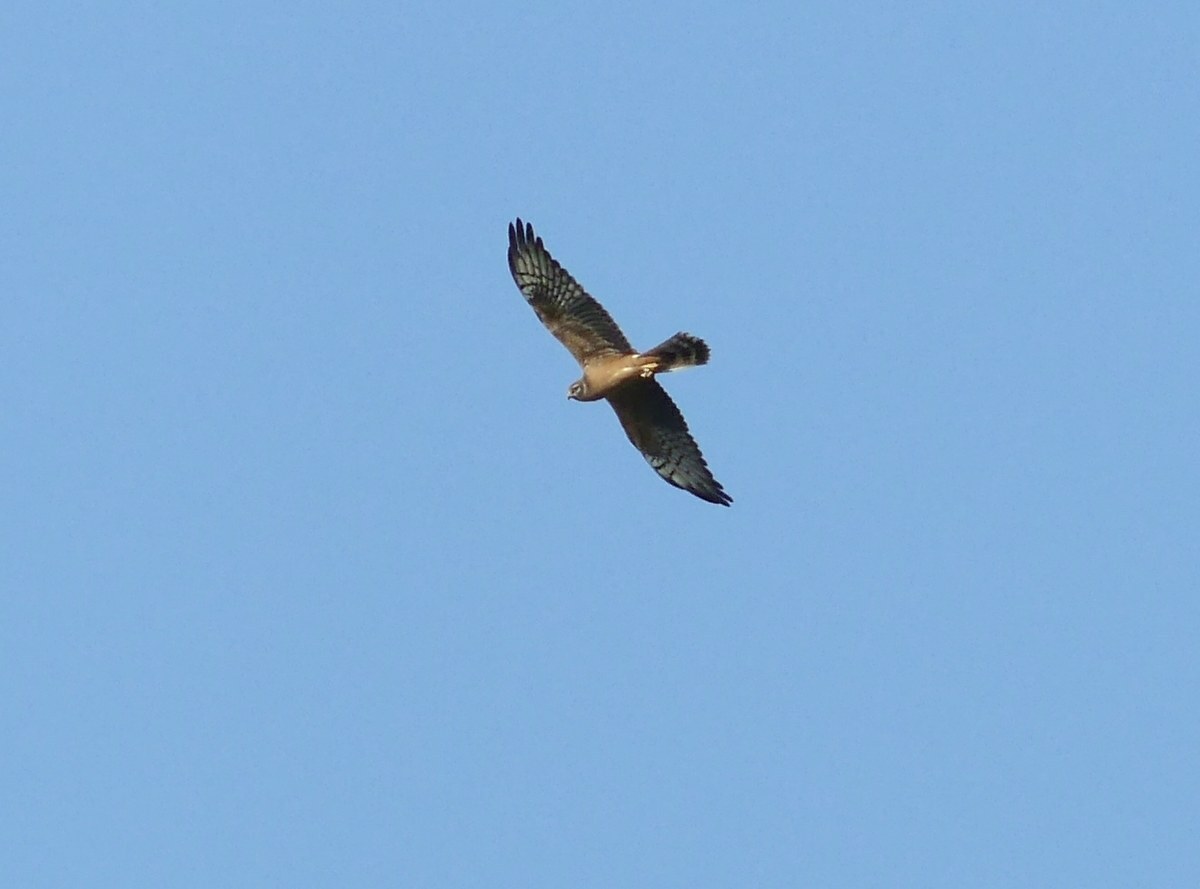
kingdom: Animalia
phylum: Chordata
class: Aves
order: Accipitriformes
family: Accipitridae
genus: Circus
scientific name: Circus pygargus
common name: Montagu's harrier
